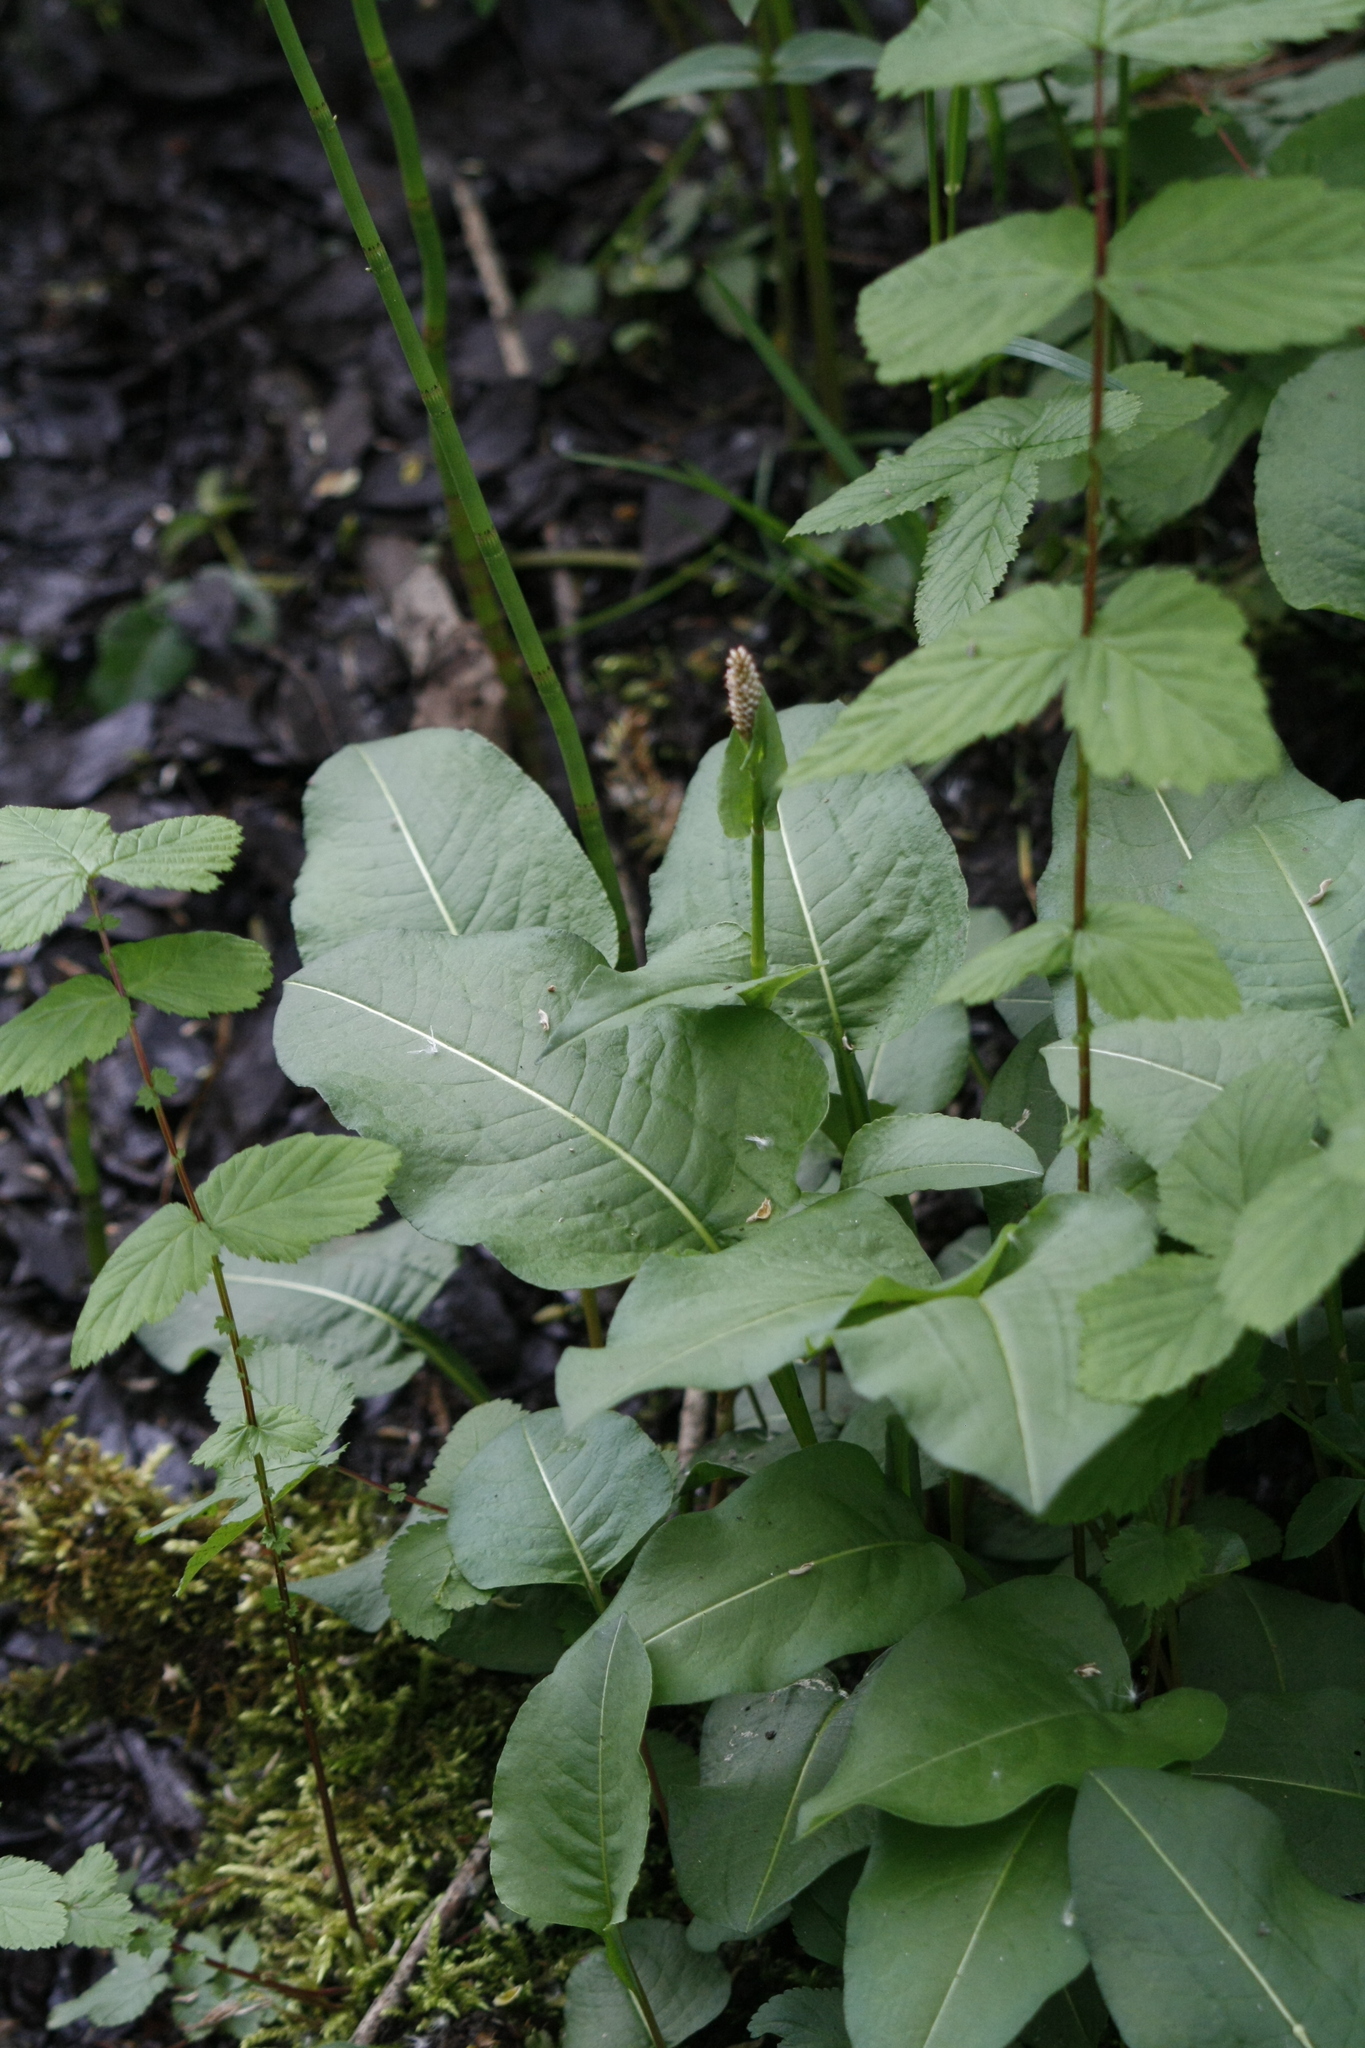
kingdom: Plantae
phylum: Tracheophyta
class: Magnoliopsida
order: Caryophyllales
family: Polygonaceae
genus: Bistorta
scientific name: Bistorta officinalis
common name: Common bistort
